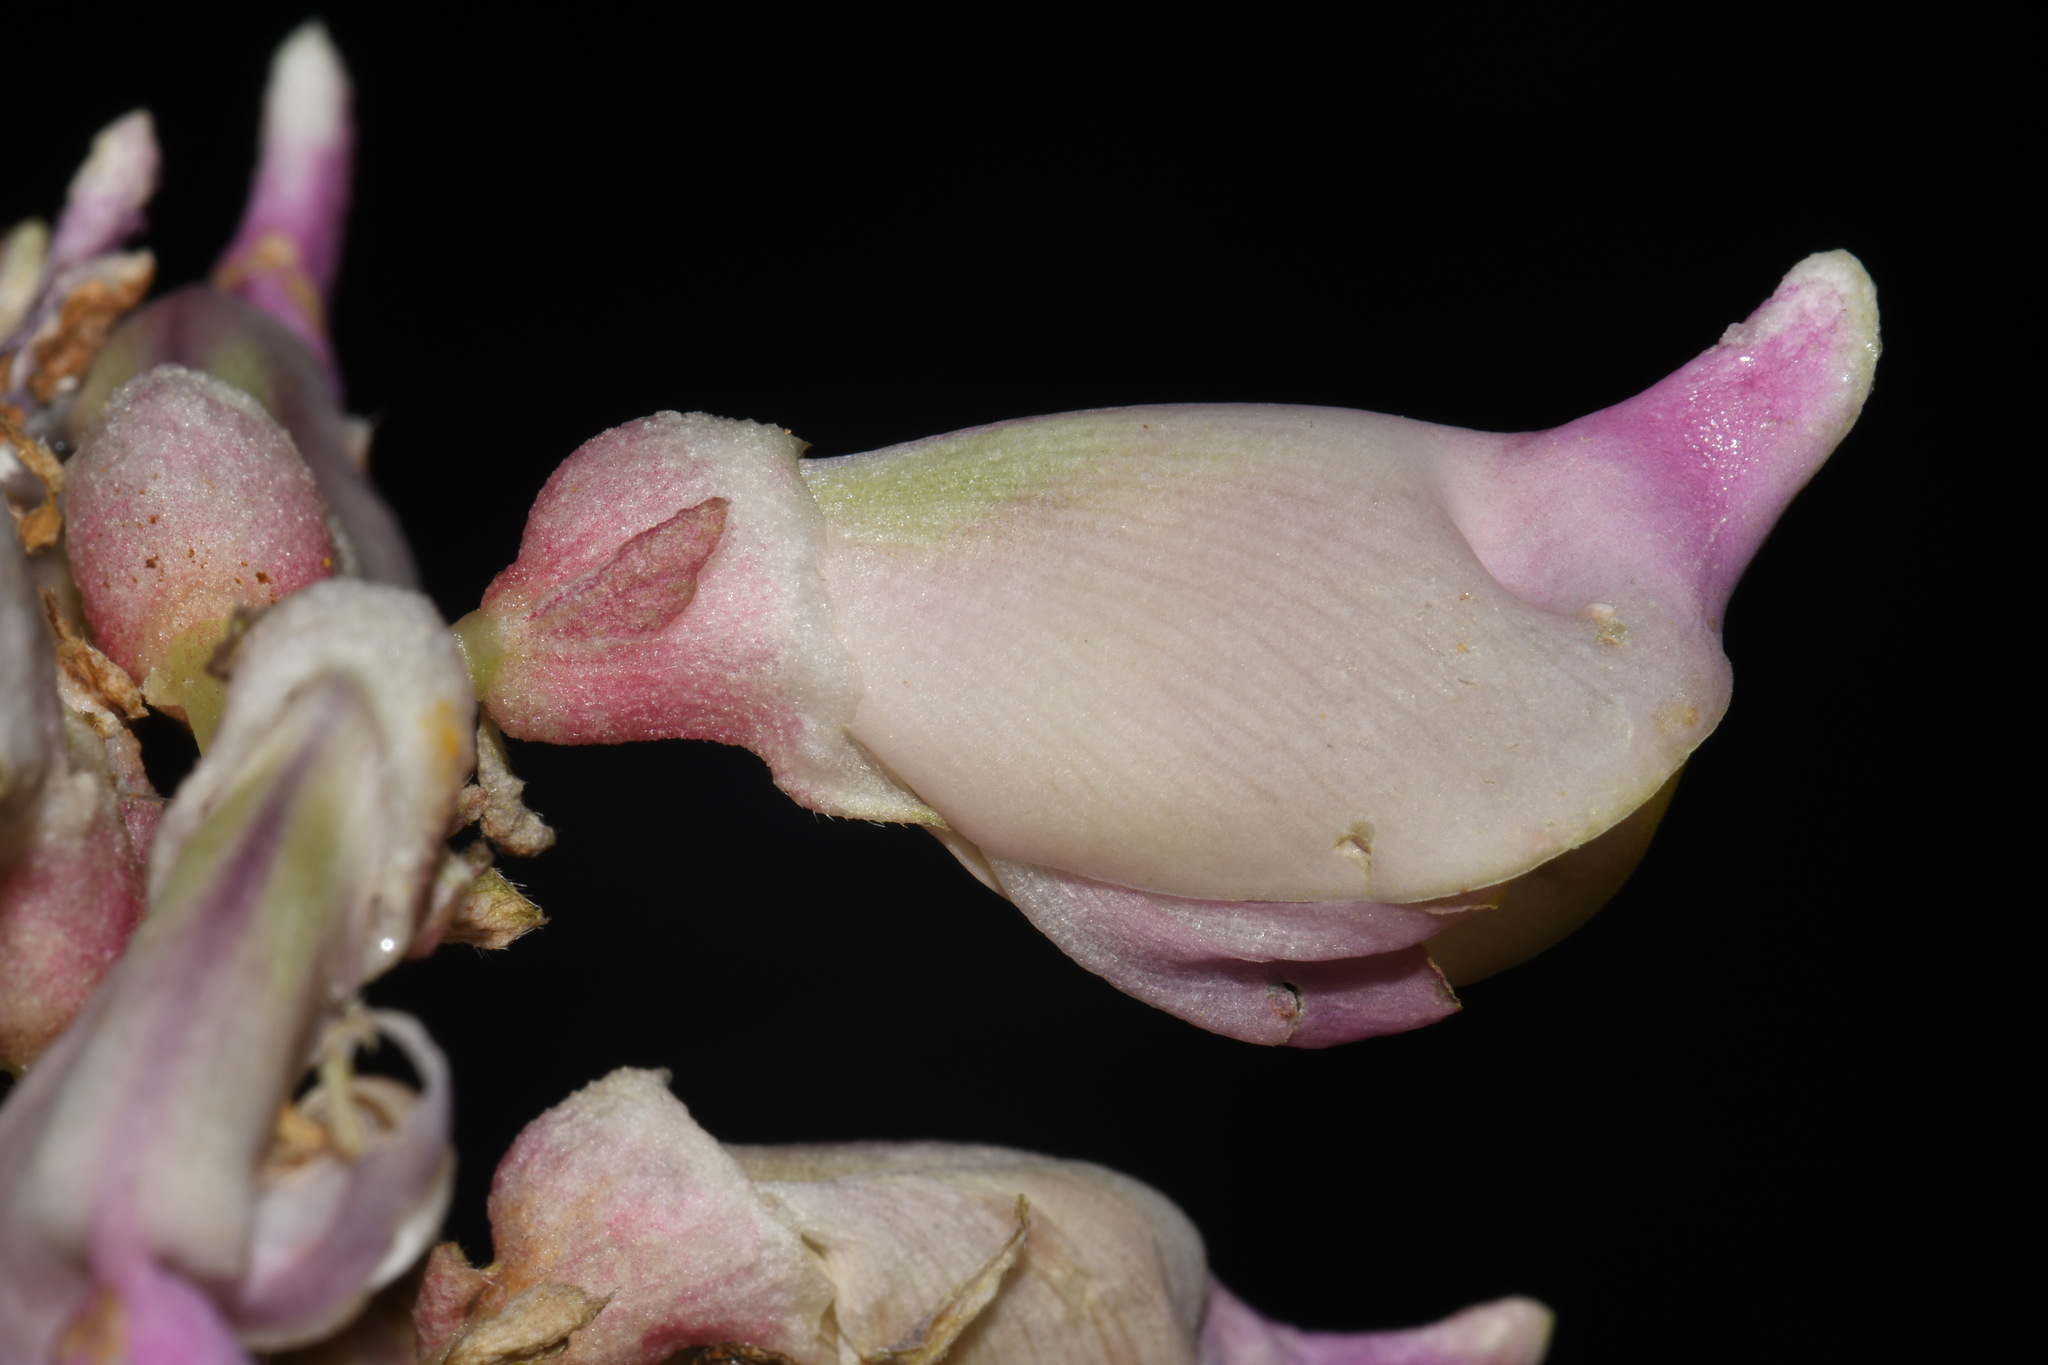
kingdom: Plantae
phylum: Tracheophyta
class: Magnoliopsida
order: Fabales
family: Fabaceae
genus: Apios
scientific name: Apios priceana
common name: Price's potato-bean
